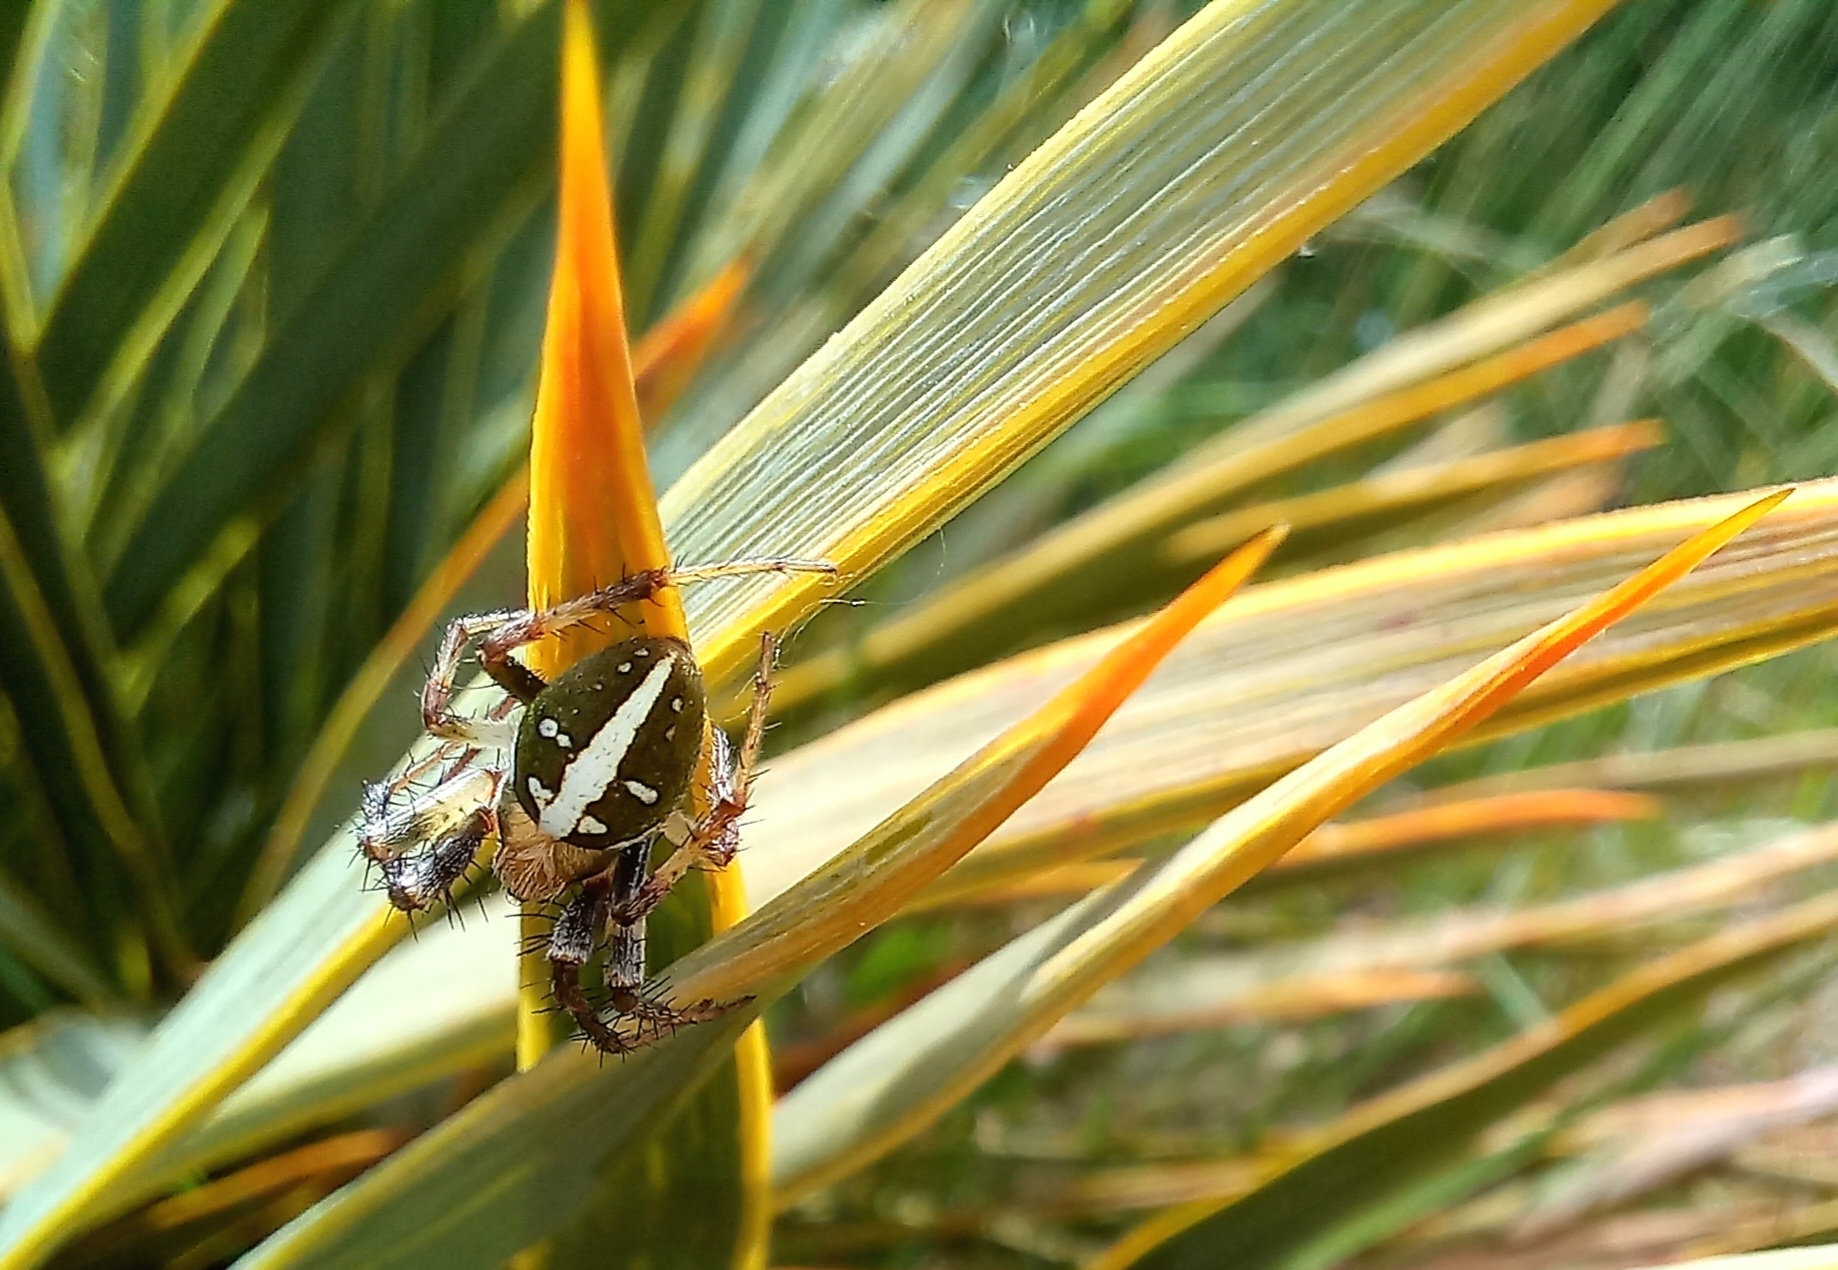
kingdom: Animalia
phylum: Arthropoda
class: Arachnida
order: Araneae
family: Araneidae
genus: Colaranea
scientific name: Colaranea verutum
